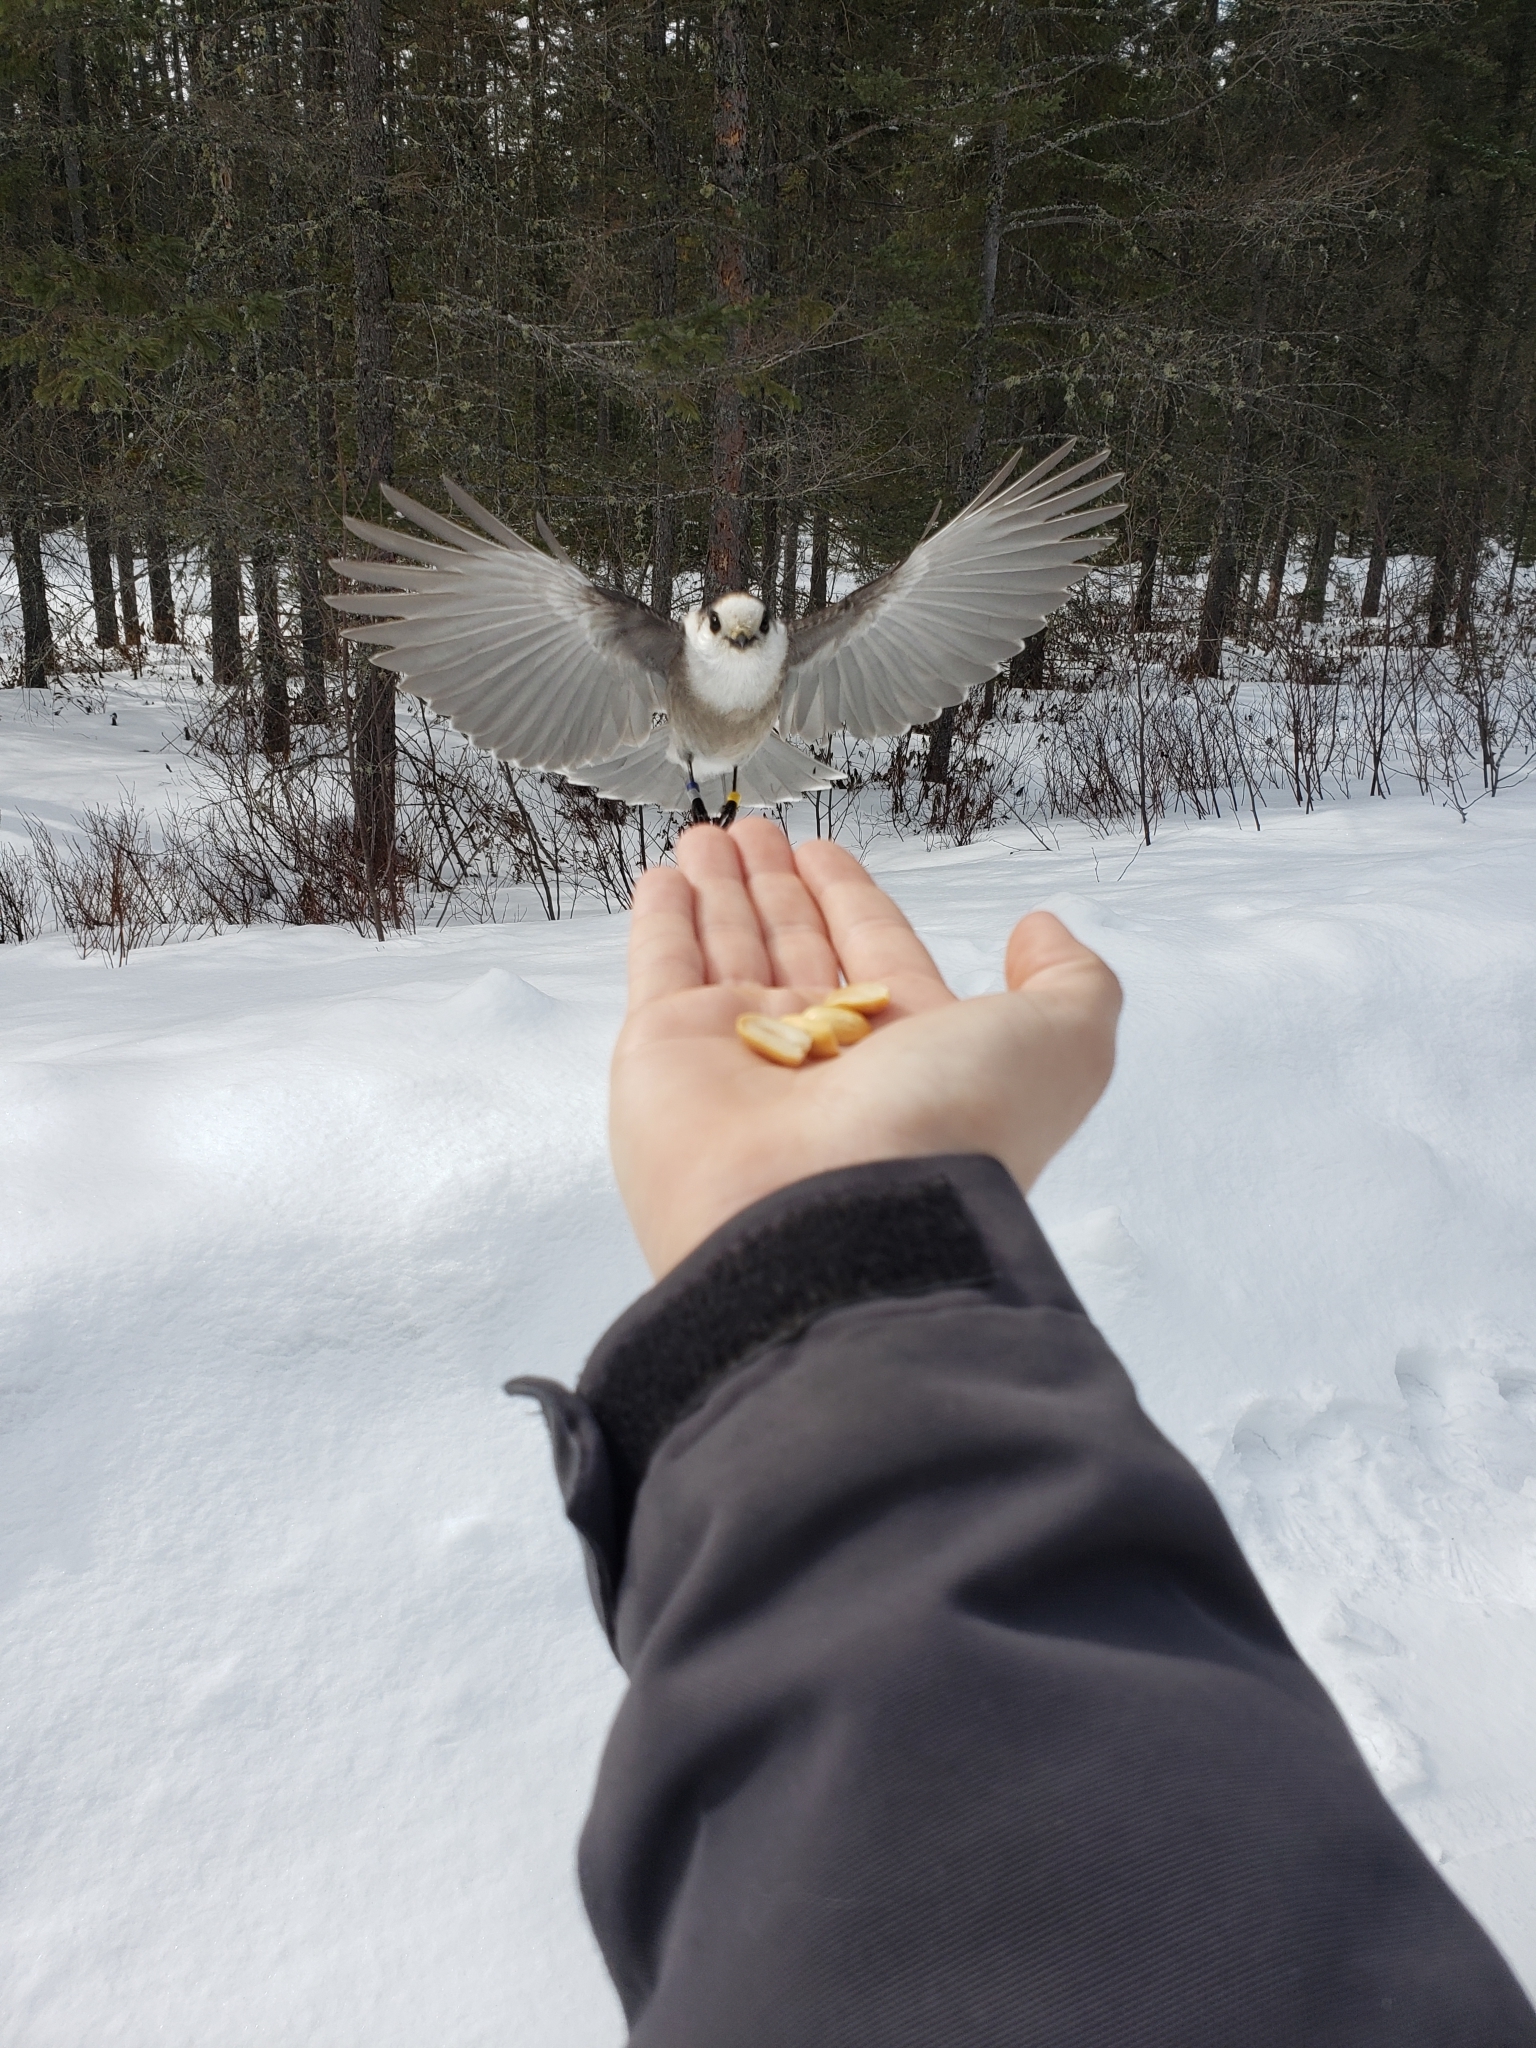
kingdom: Animalia
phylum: Chordata
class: Aves
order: Passeriformes
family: Corvidae
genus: Perisoreus
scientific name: Perisoreus canadensis
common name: Gray jay
